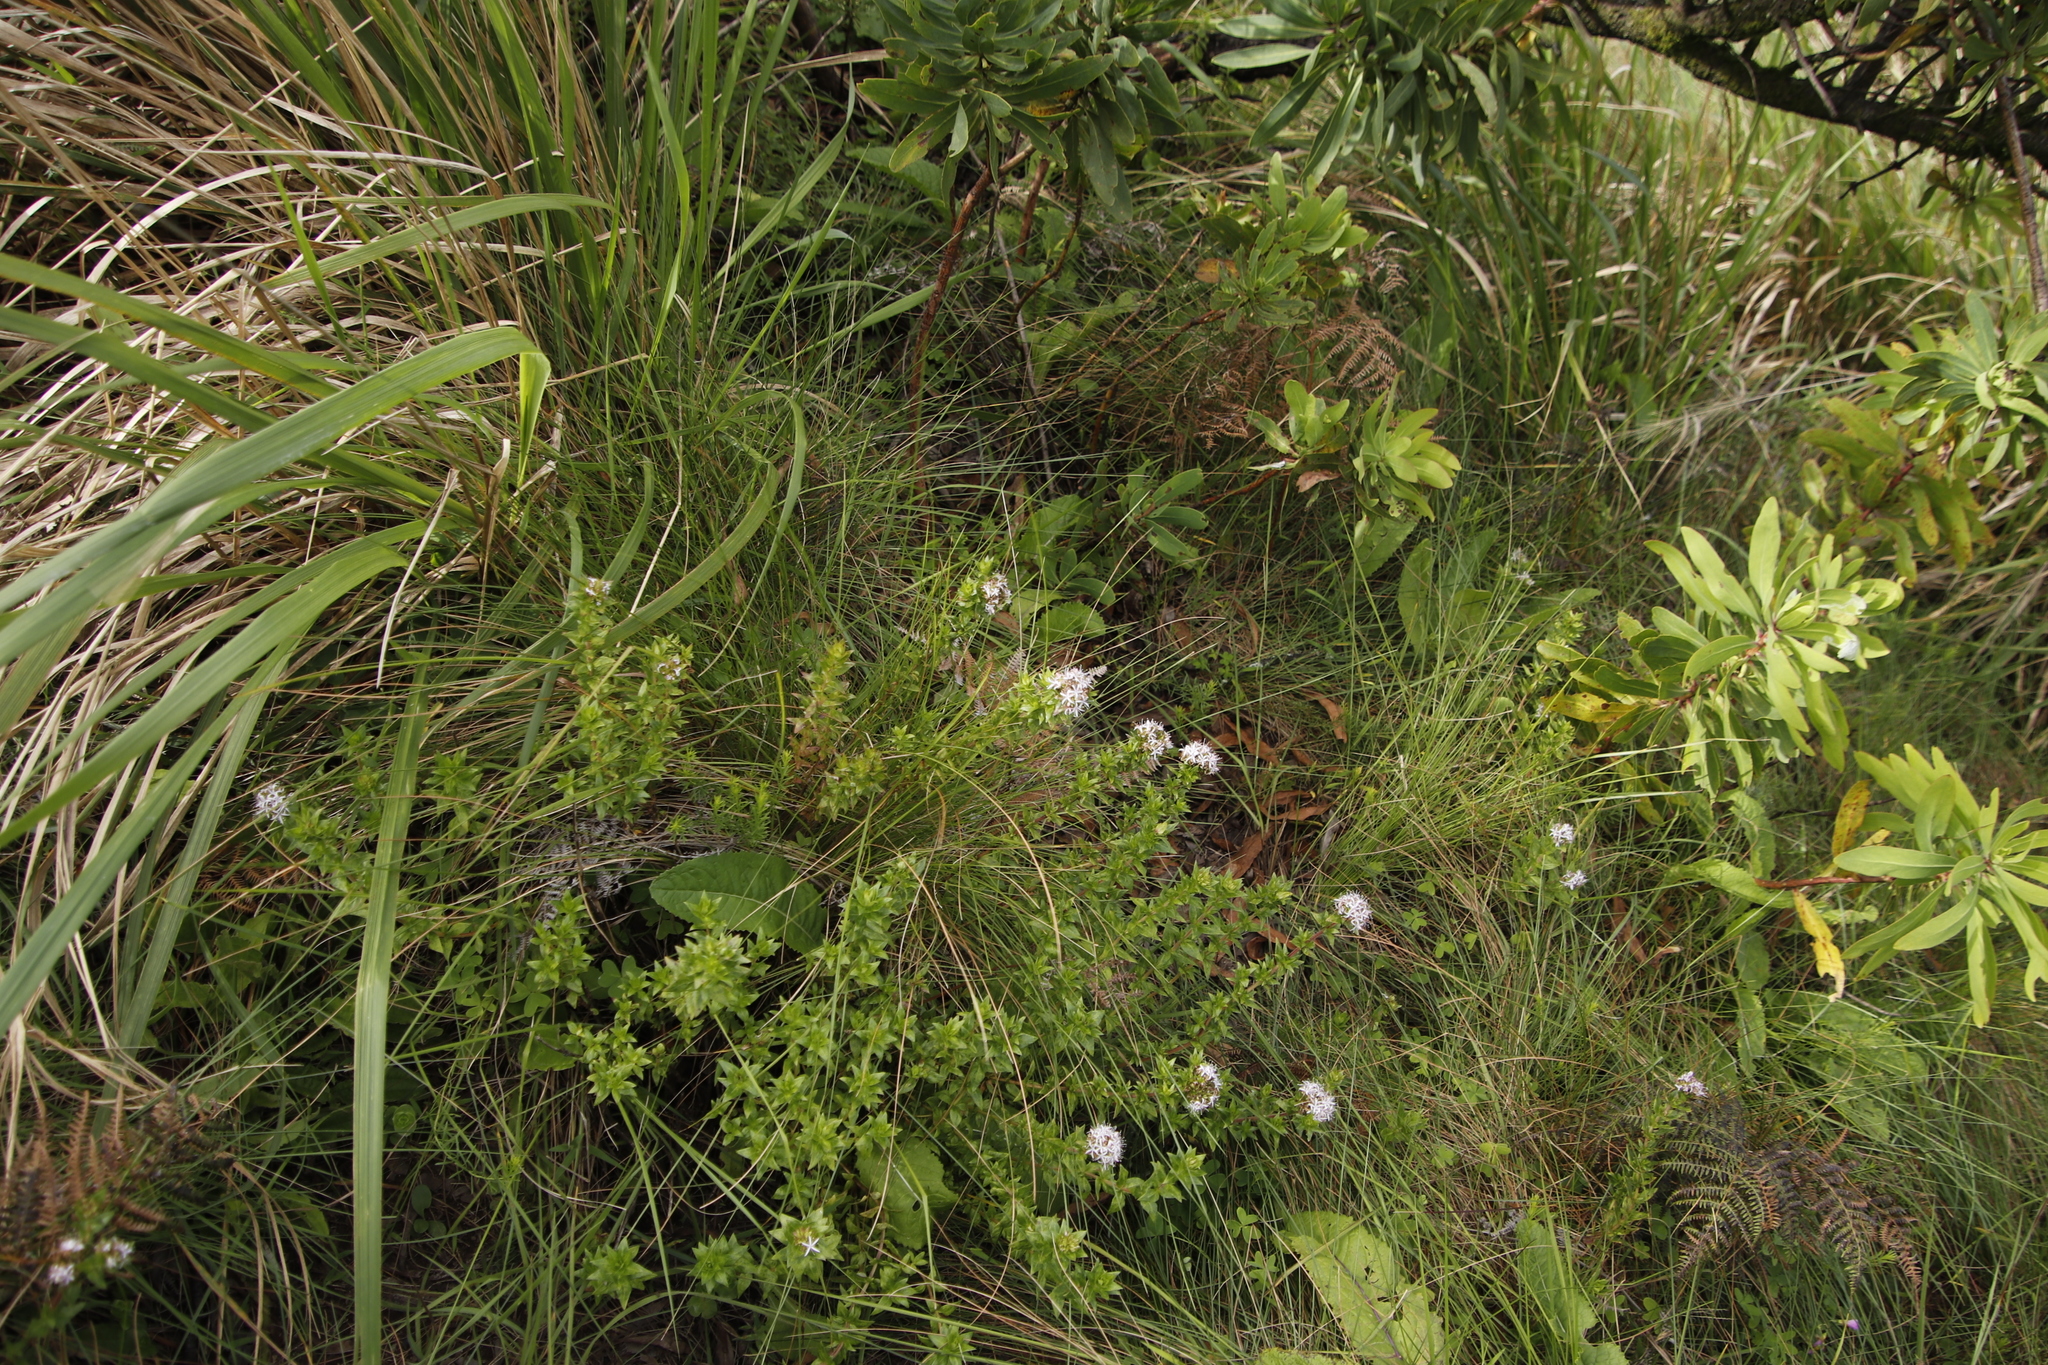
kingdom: Plantae
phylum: Tracheophyta
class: Magnoliopsida
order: Gentianales
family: Rubiaceae
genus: Otiophora
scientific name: Otiophora inyangana
